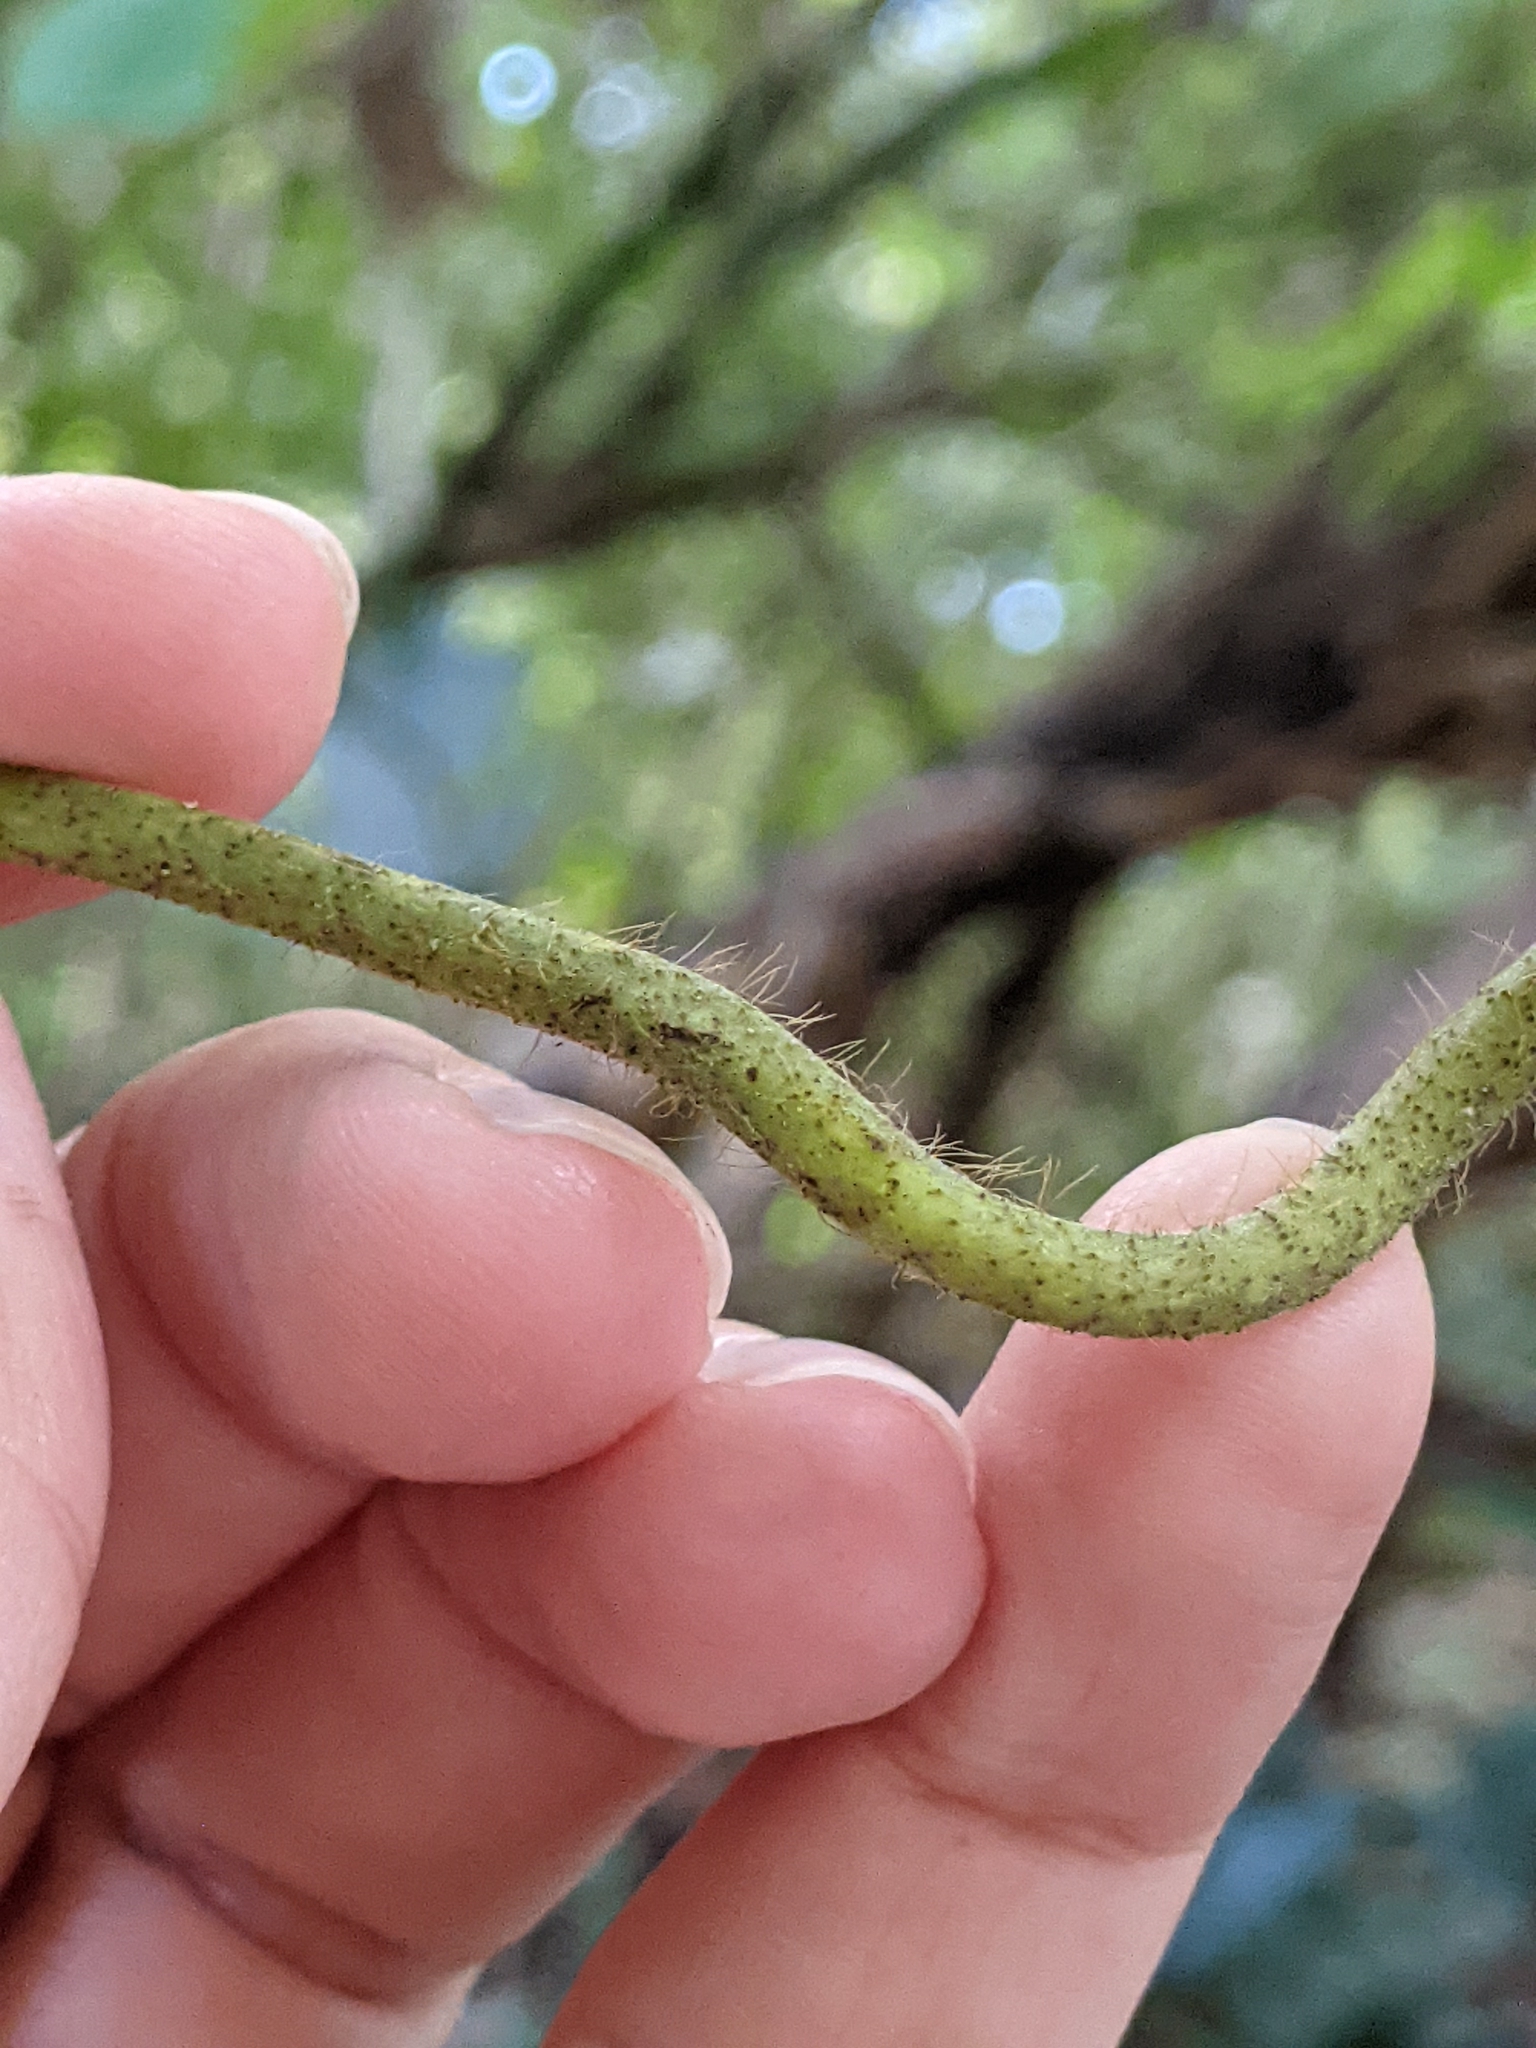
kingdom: Plantae
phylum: Tracheophyta
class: Magnoliopsida
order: Fabales
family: Fabaceae
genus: Pueraria
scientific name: Pueraria montana
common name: Kudzu
